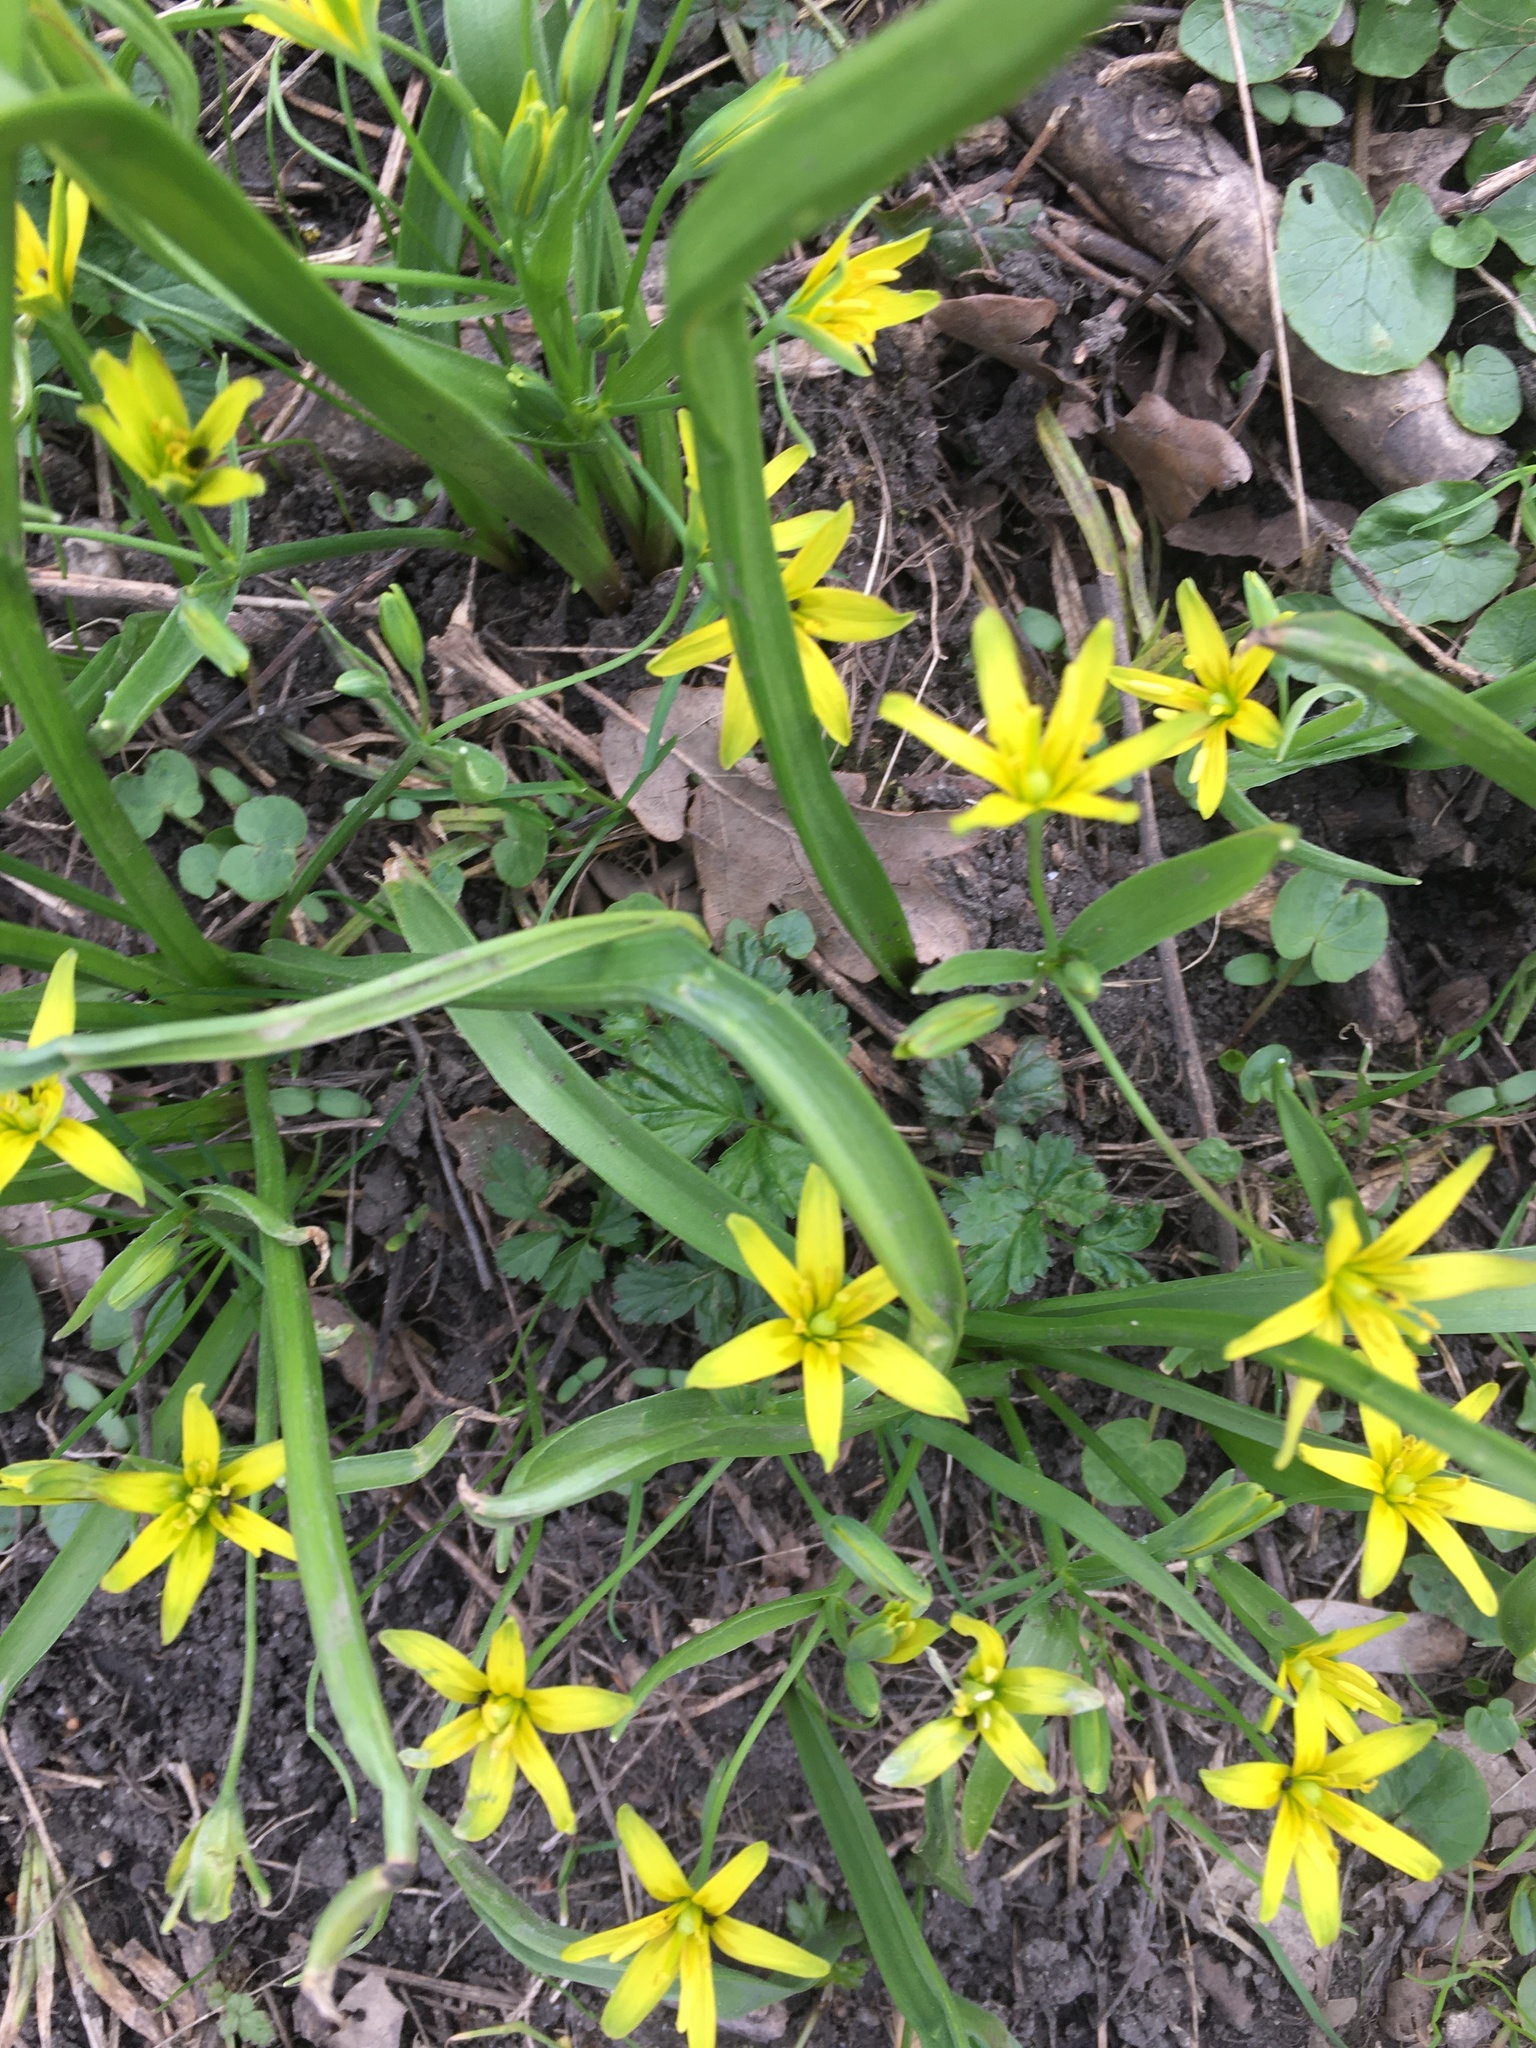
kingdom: Plantae
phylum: Tracheophyta
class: Liliopsida
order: Liliales
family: Liliaceae
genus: Gagea
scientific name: Gagea lutea
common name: Yellow star-of-bethlehem
